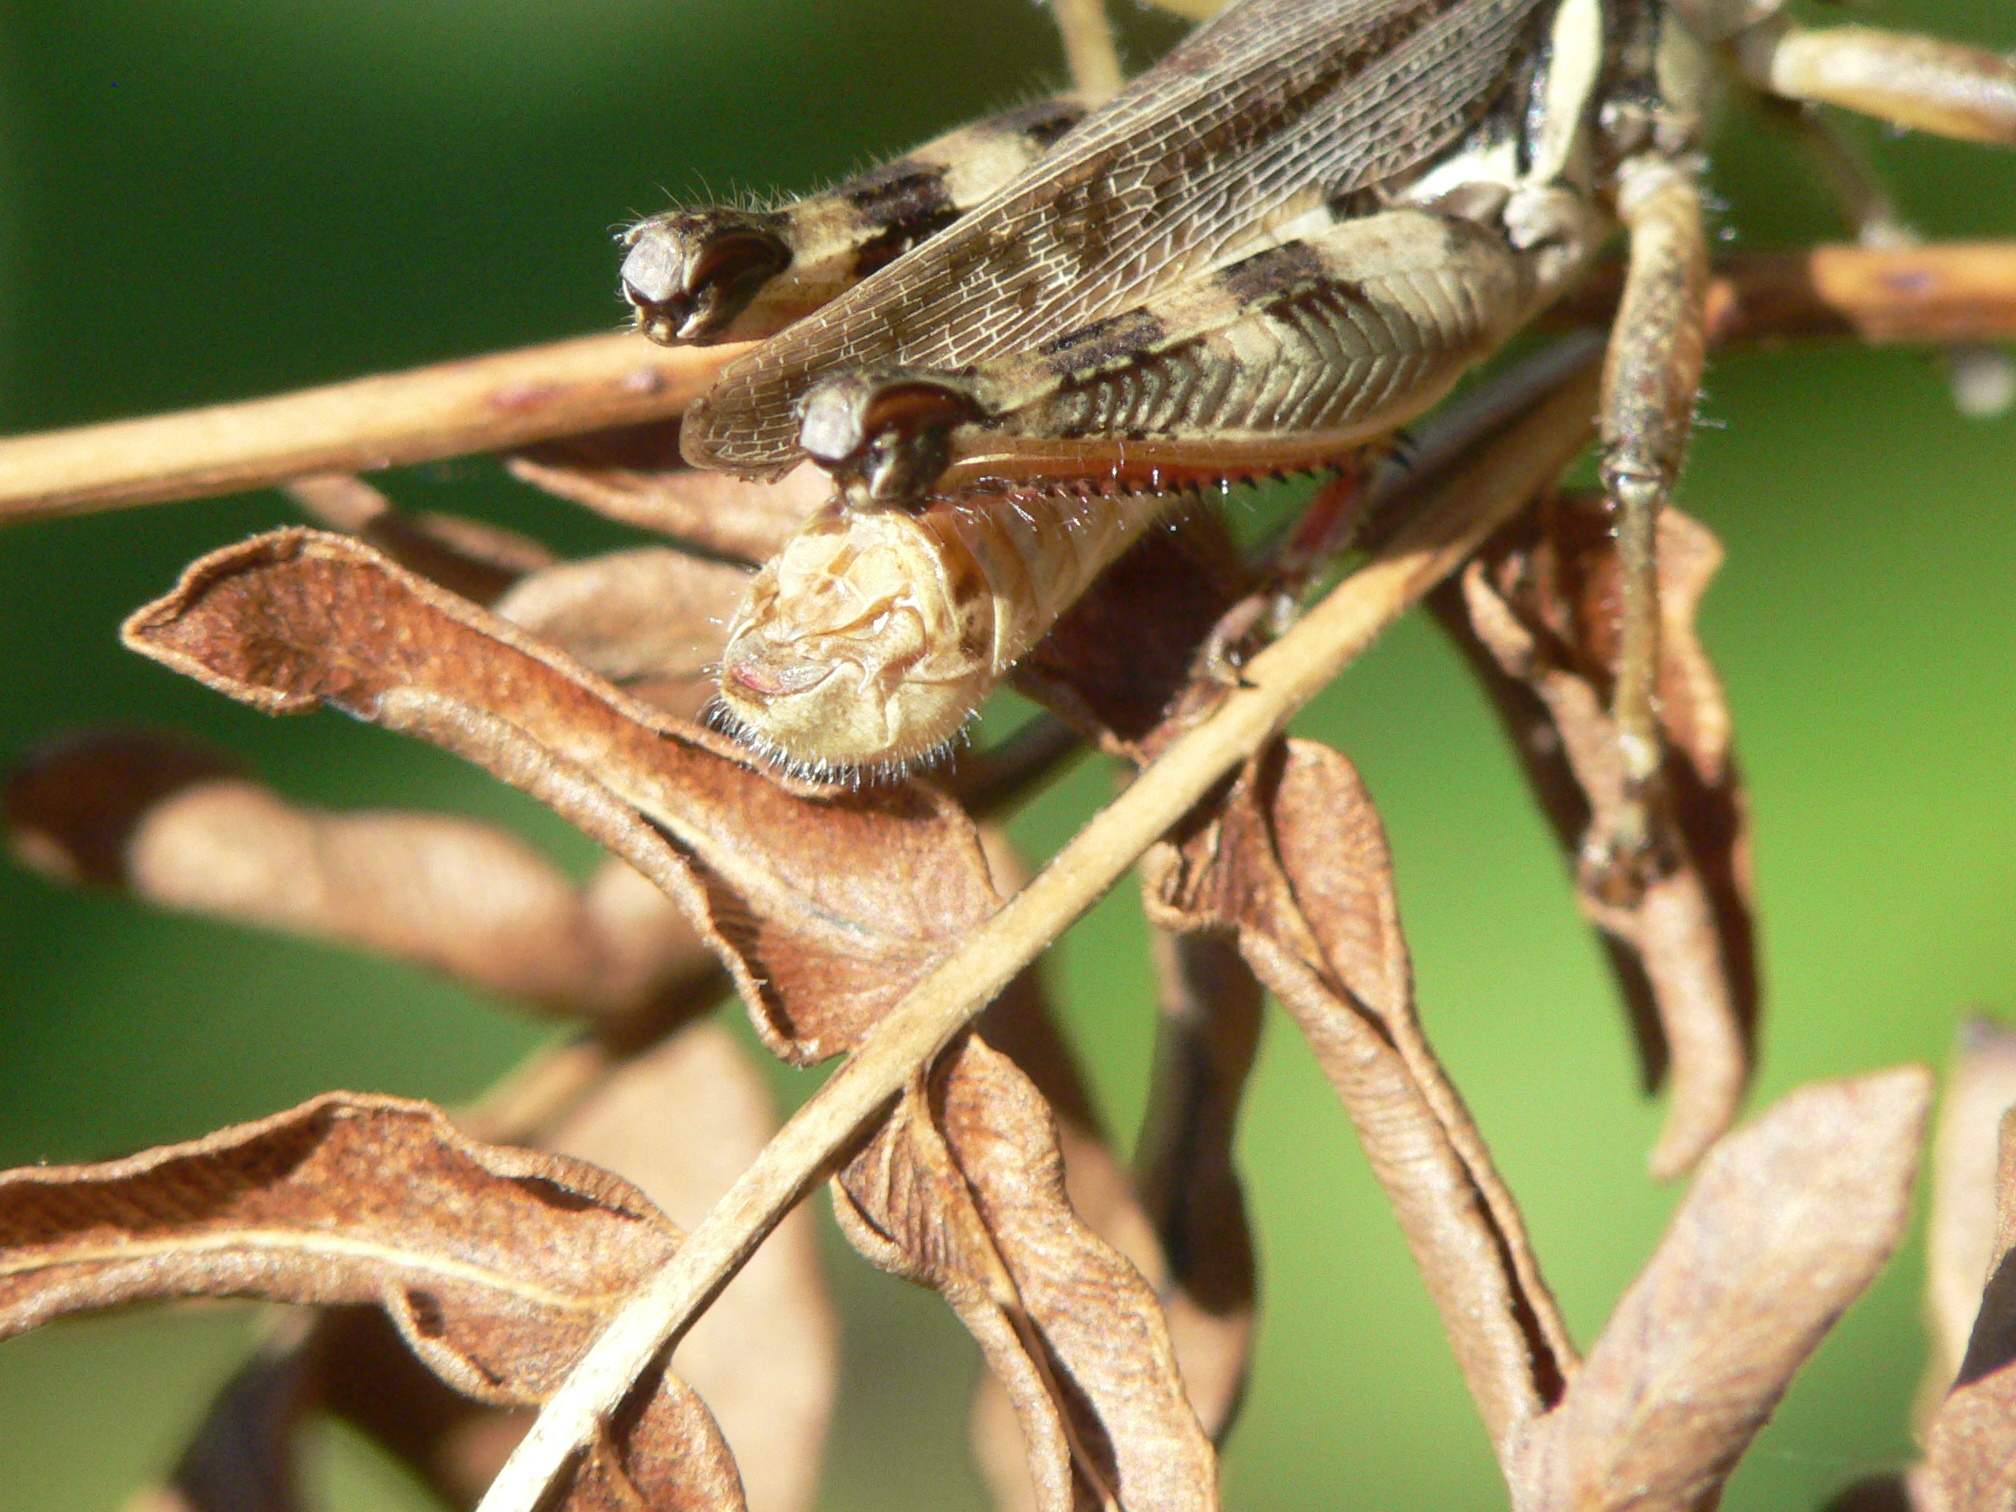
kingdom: Animalia
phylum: Arthropoda
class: Insecta
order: Orthoptera
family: Acrididae
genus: Melanoplus
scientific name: Melanoplus keeleri
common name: Keeler grasshopper
